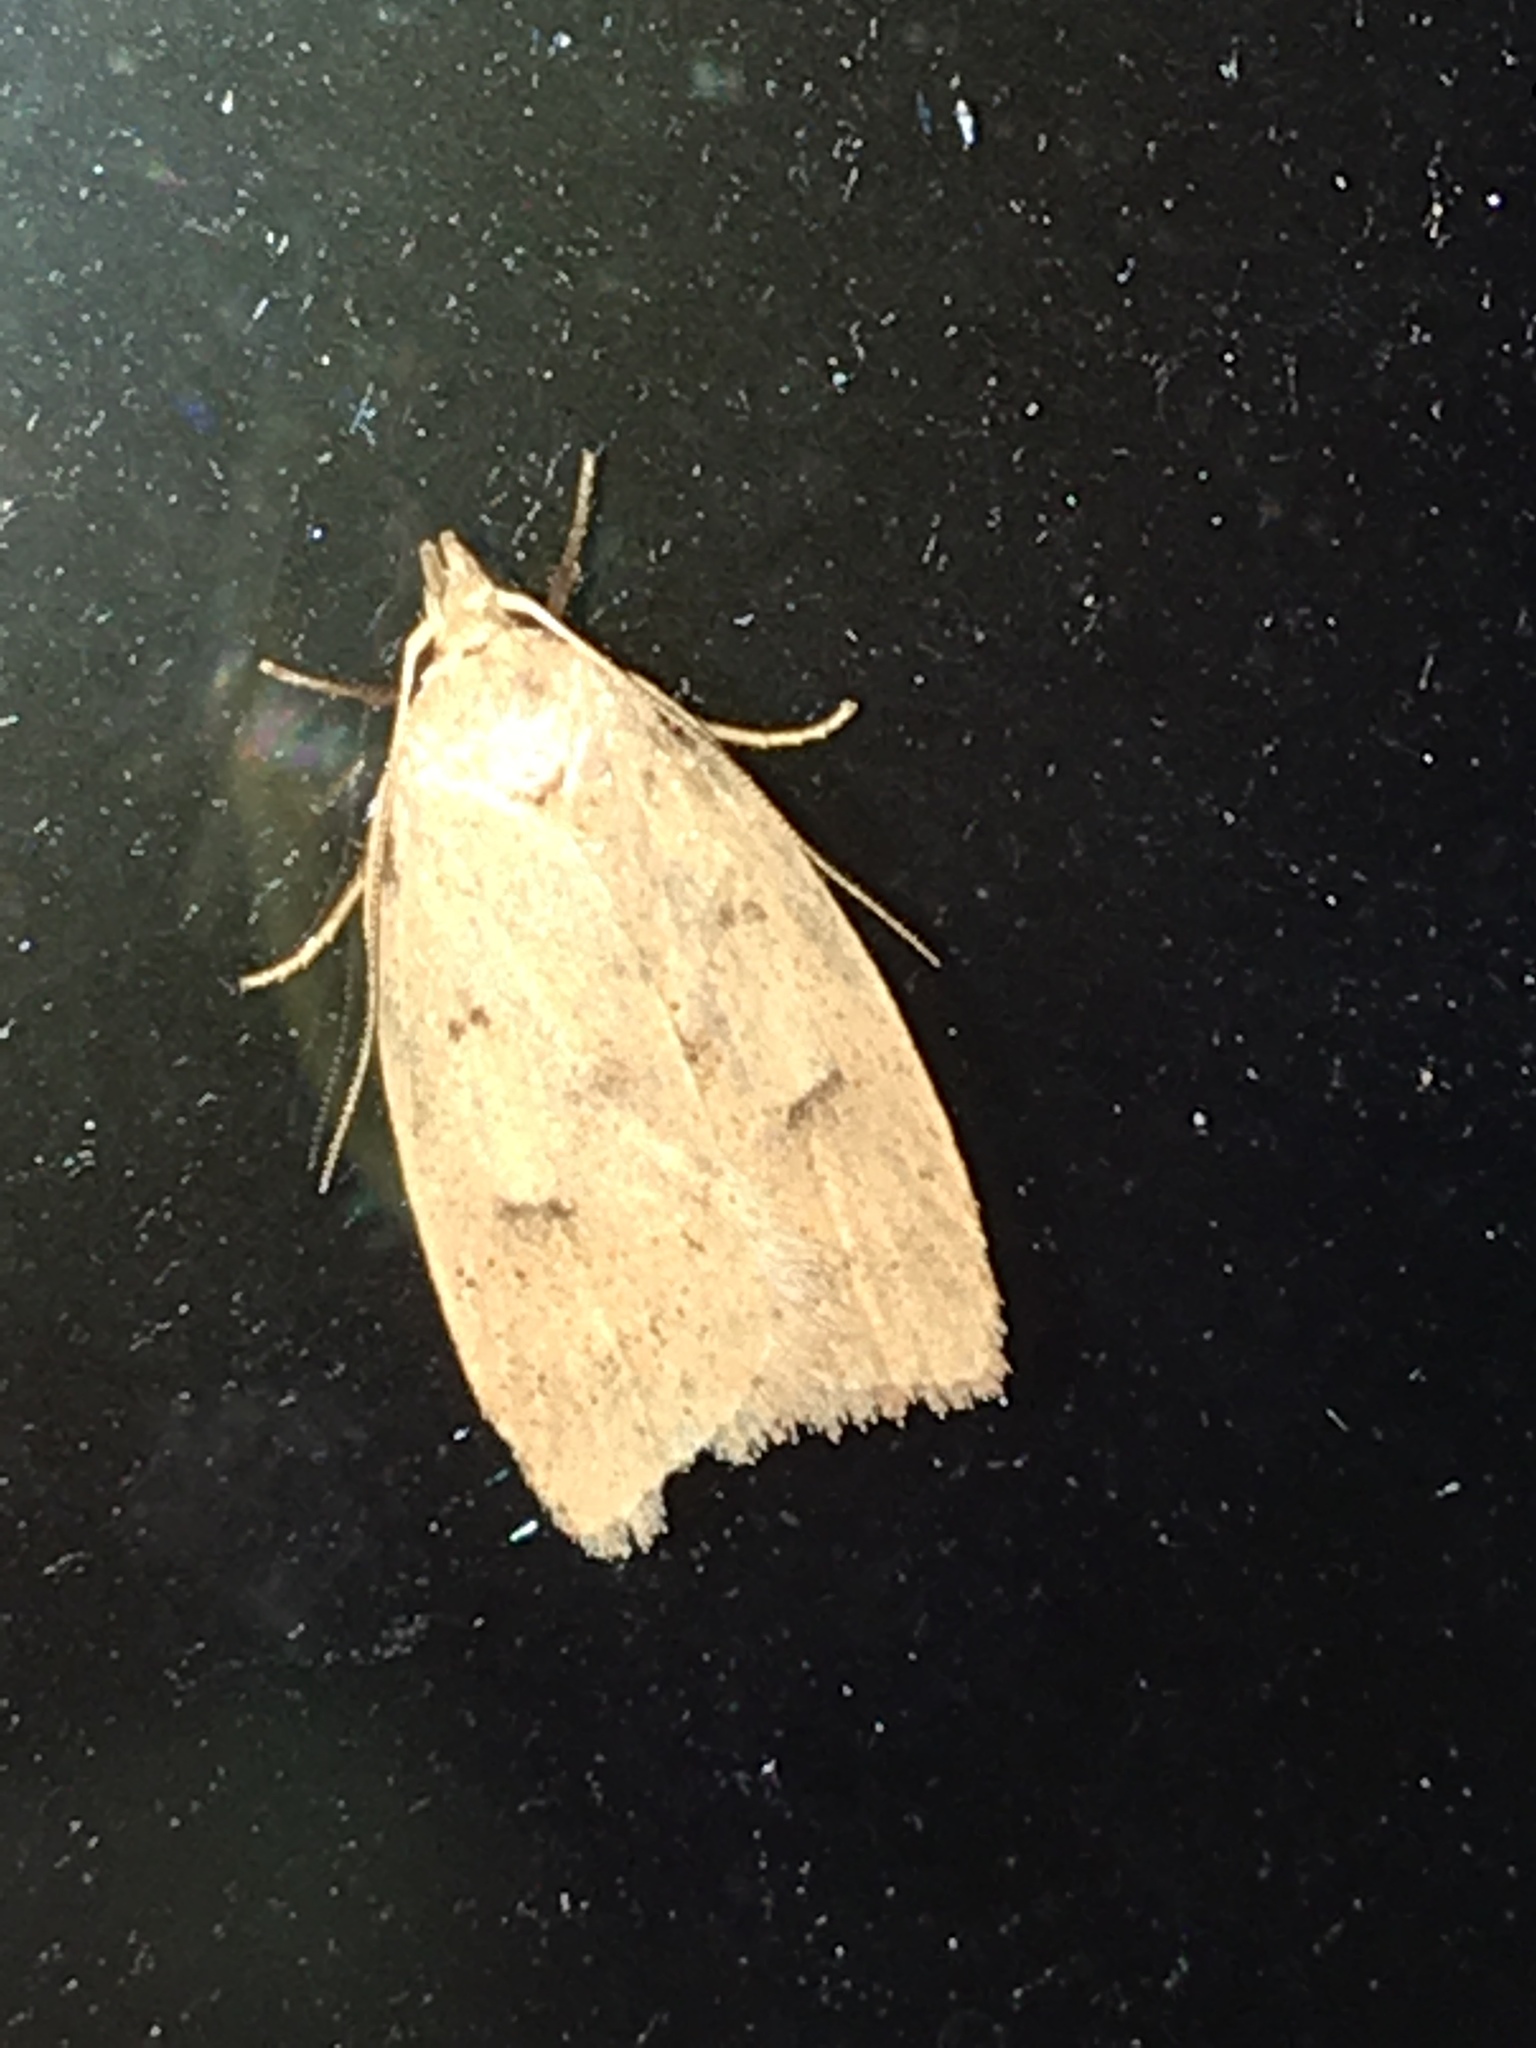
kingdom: Animalia
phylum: Arthropoda
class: Insecta
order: Lepidoptera
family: Peleopodidae
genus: Machimia
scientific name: Machimia tentoriferella
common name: Gold-striped leaftier moth
